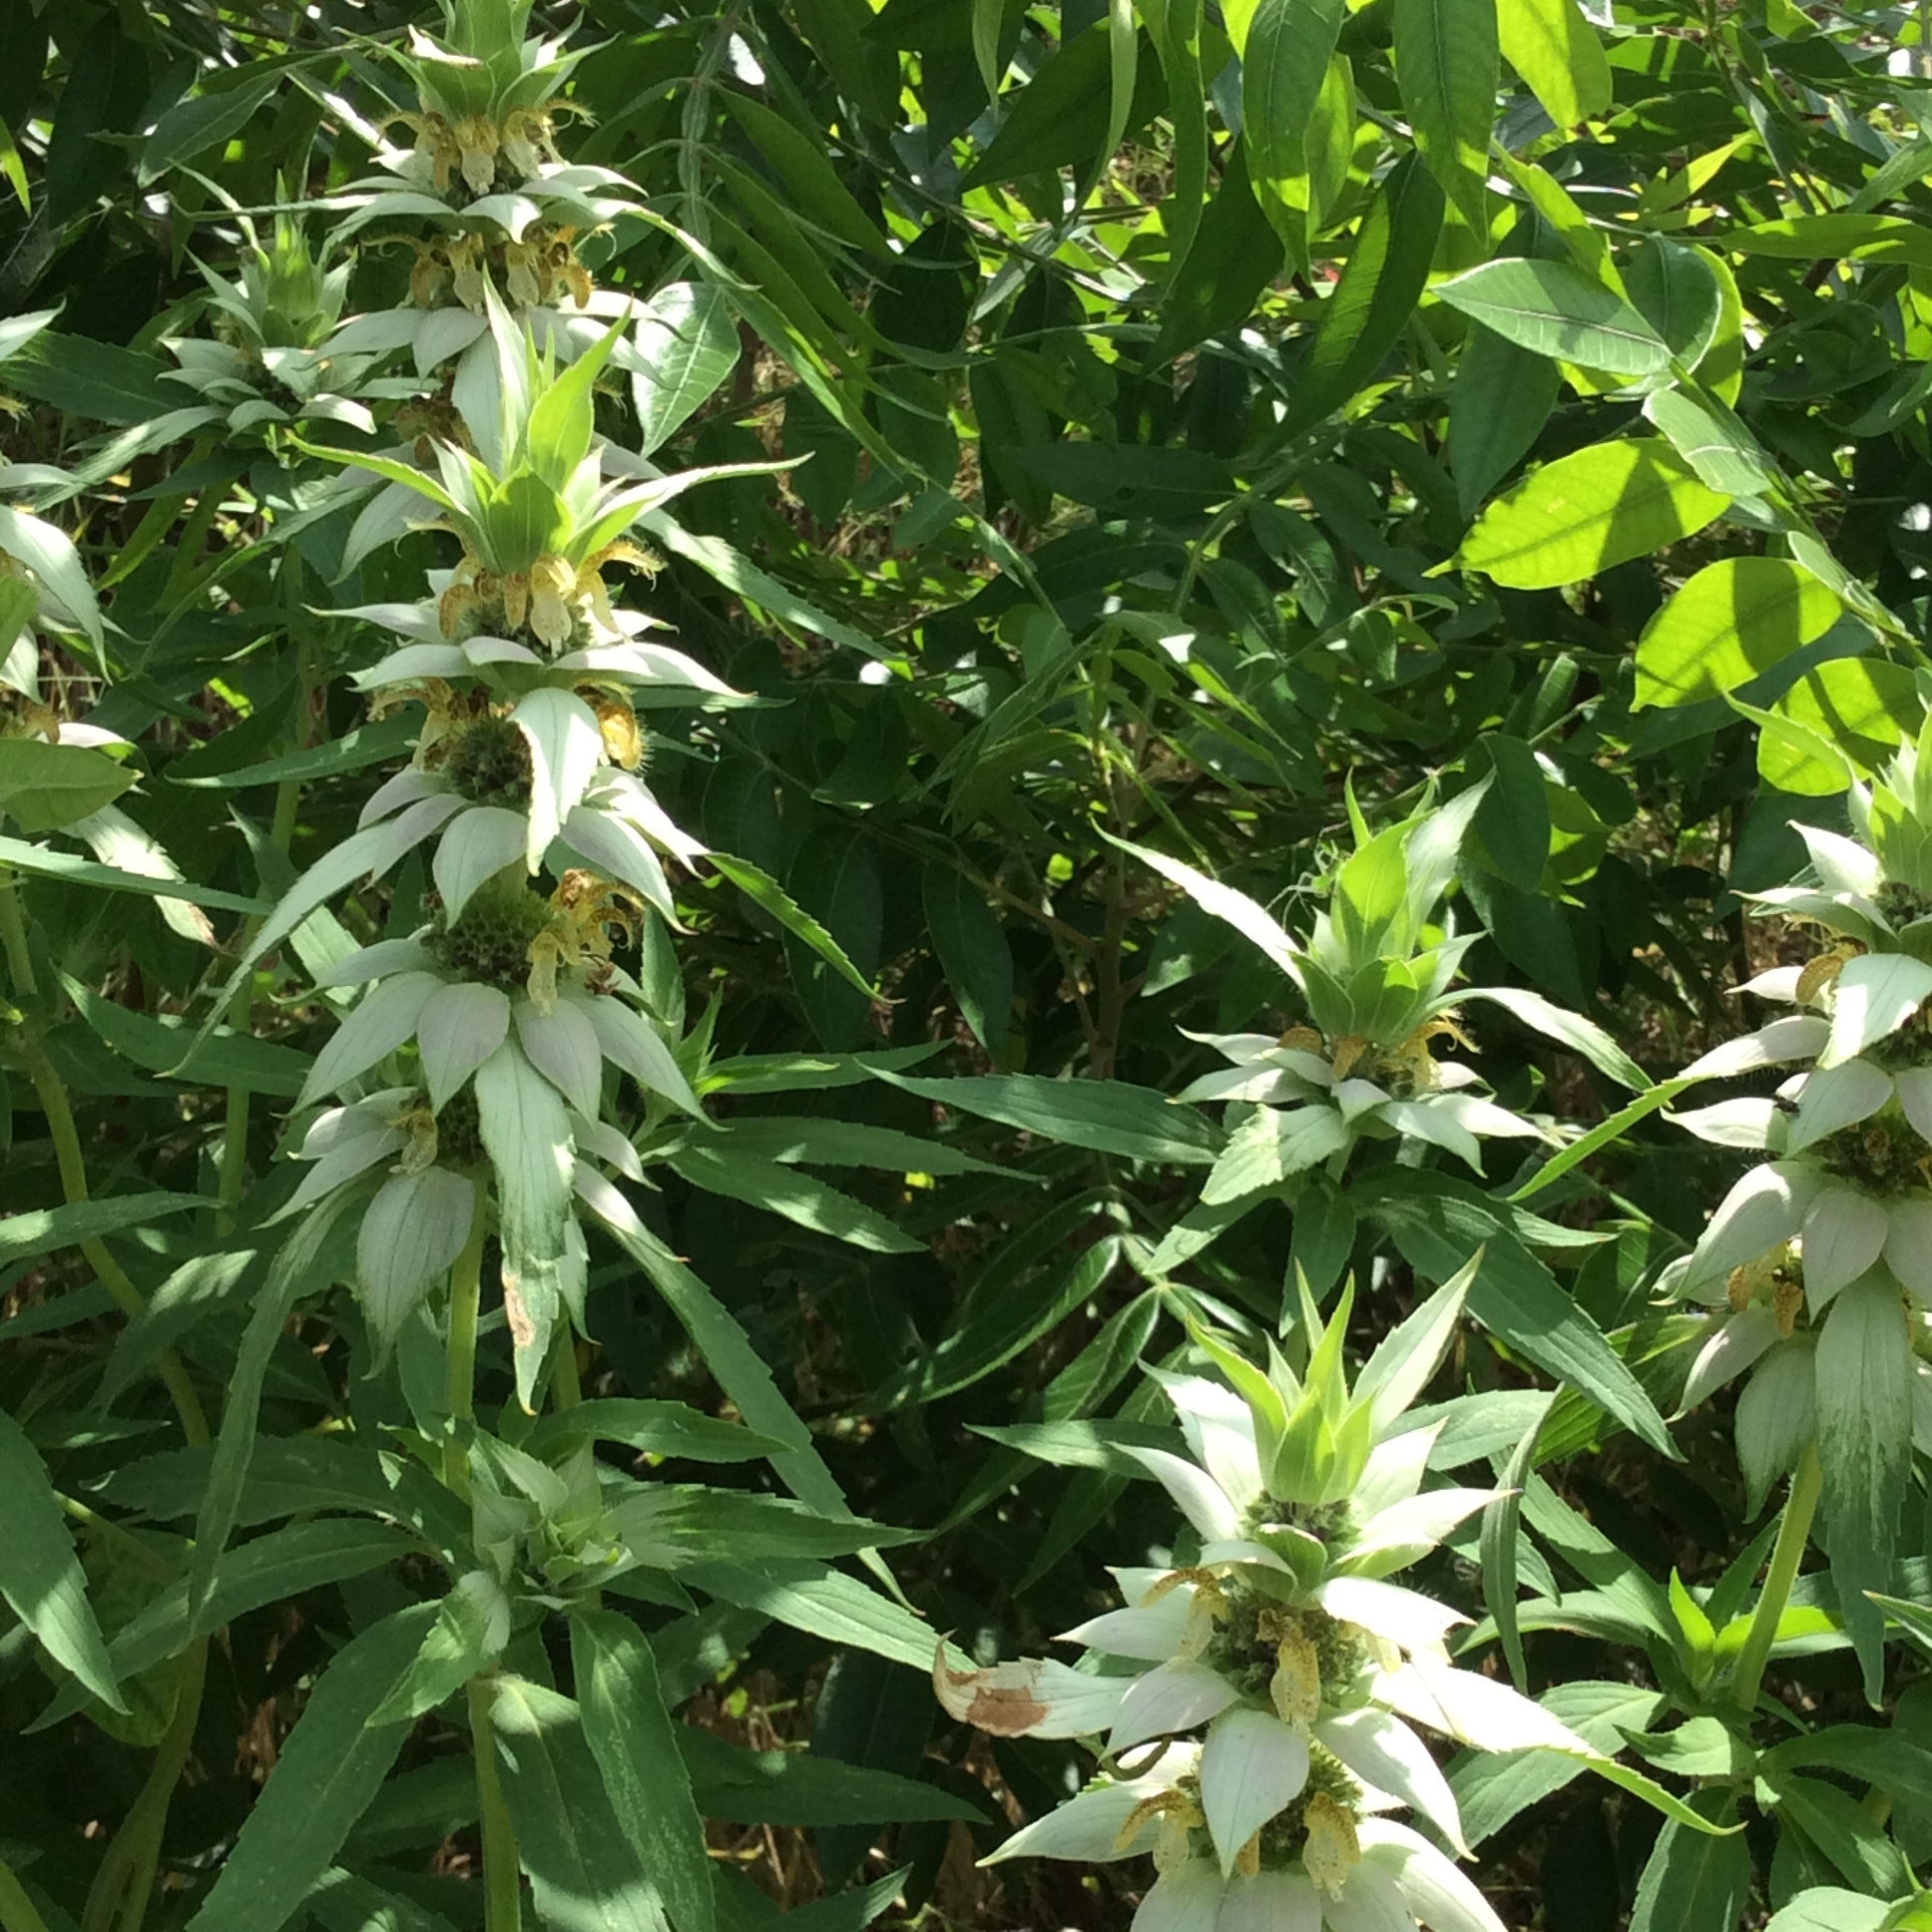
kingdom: Plantae
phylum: Tracheophyta
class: Magnoliopsida
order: Lamiales
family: Lamiaceae
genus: Monarda
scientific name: Monarda punctata
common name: Dotted monarda
